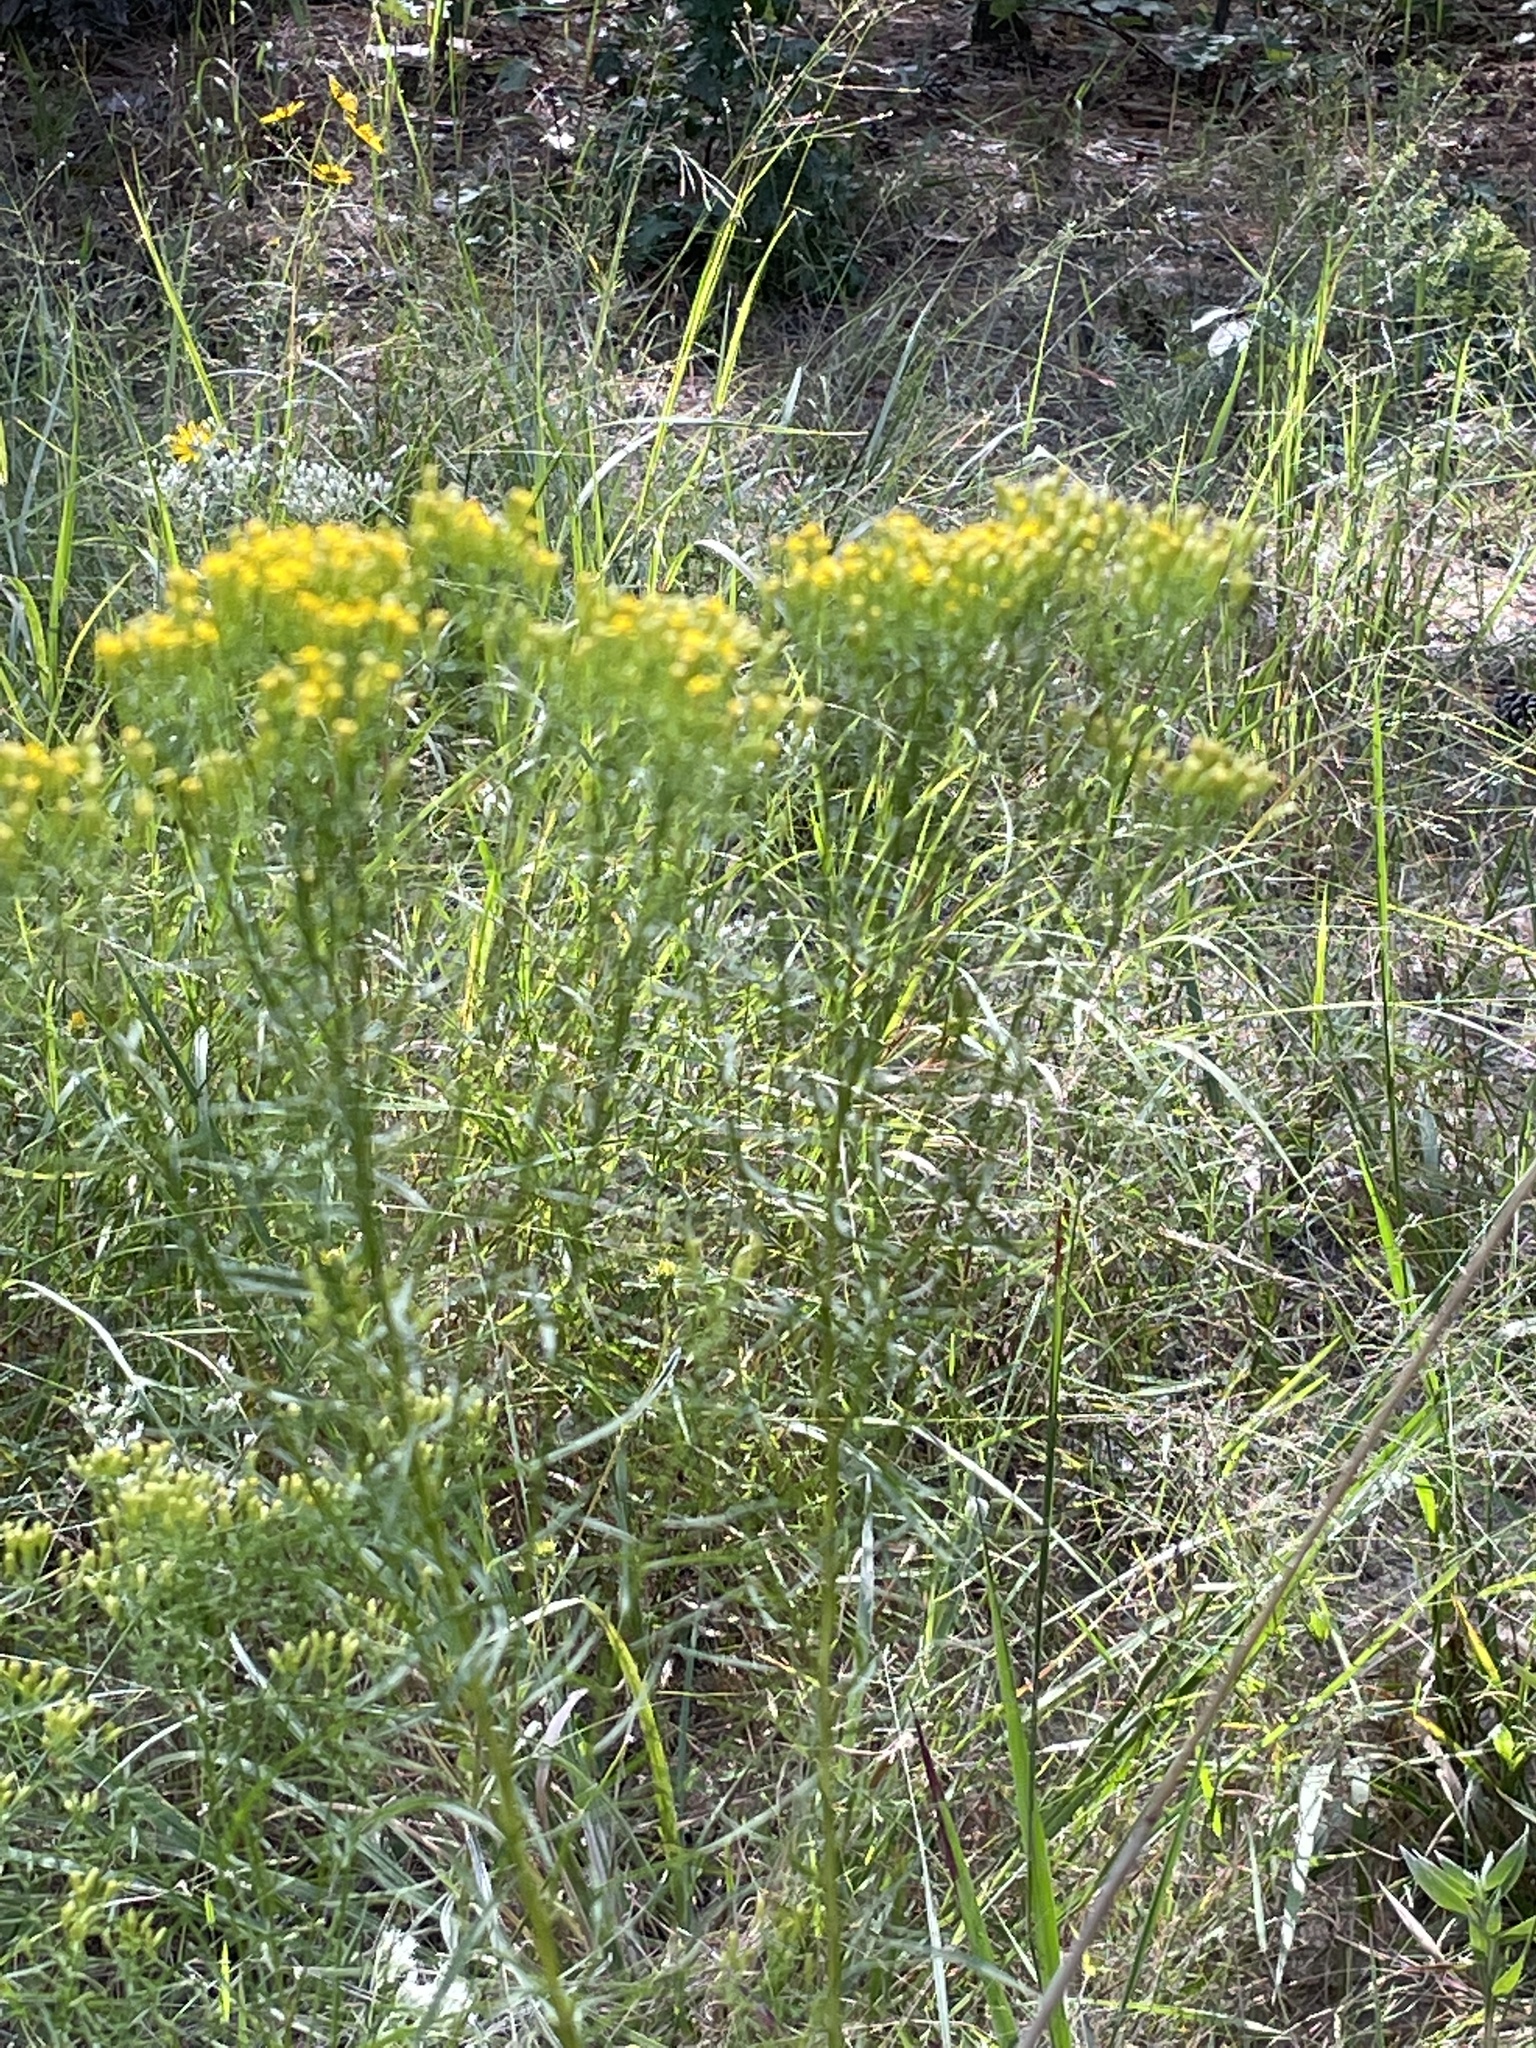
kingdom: Plantae
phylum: Tracheophyta
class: Magnoliopsida
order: Asterales
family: Asteraceae
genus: Euthamia
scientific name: Euthamia caroliniana
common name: Coastal plain goldentop
